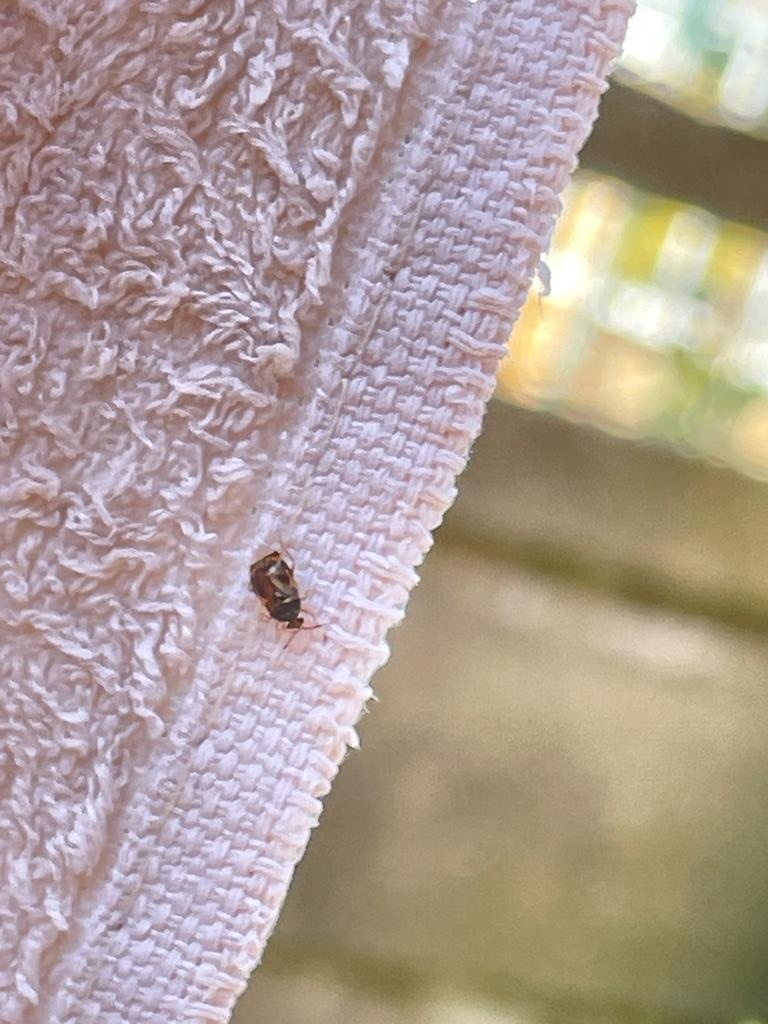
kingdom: Animalia
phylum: Arthropoda
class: Insecta
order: Hemiptera
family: Miridae
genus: Deraeocoris
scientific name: Deraeocoris lutescens
